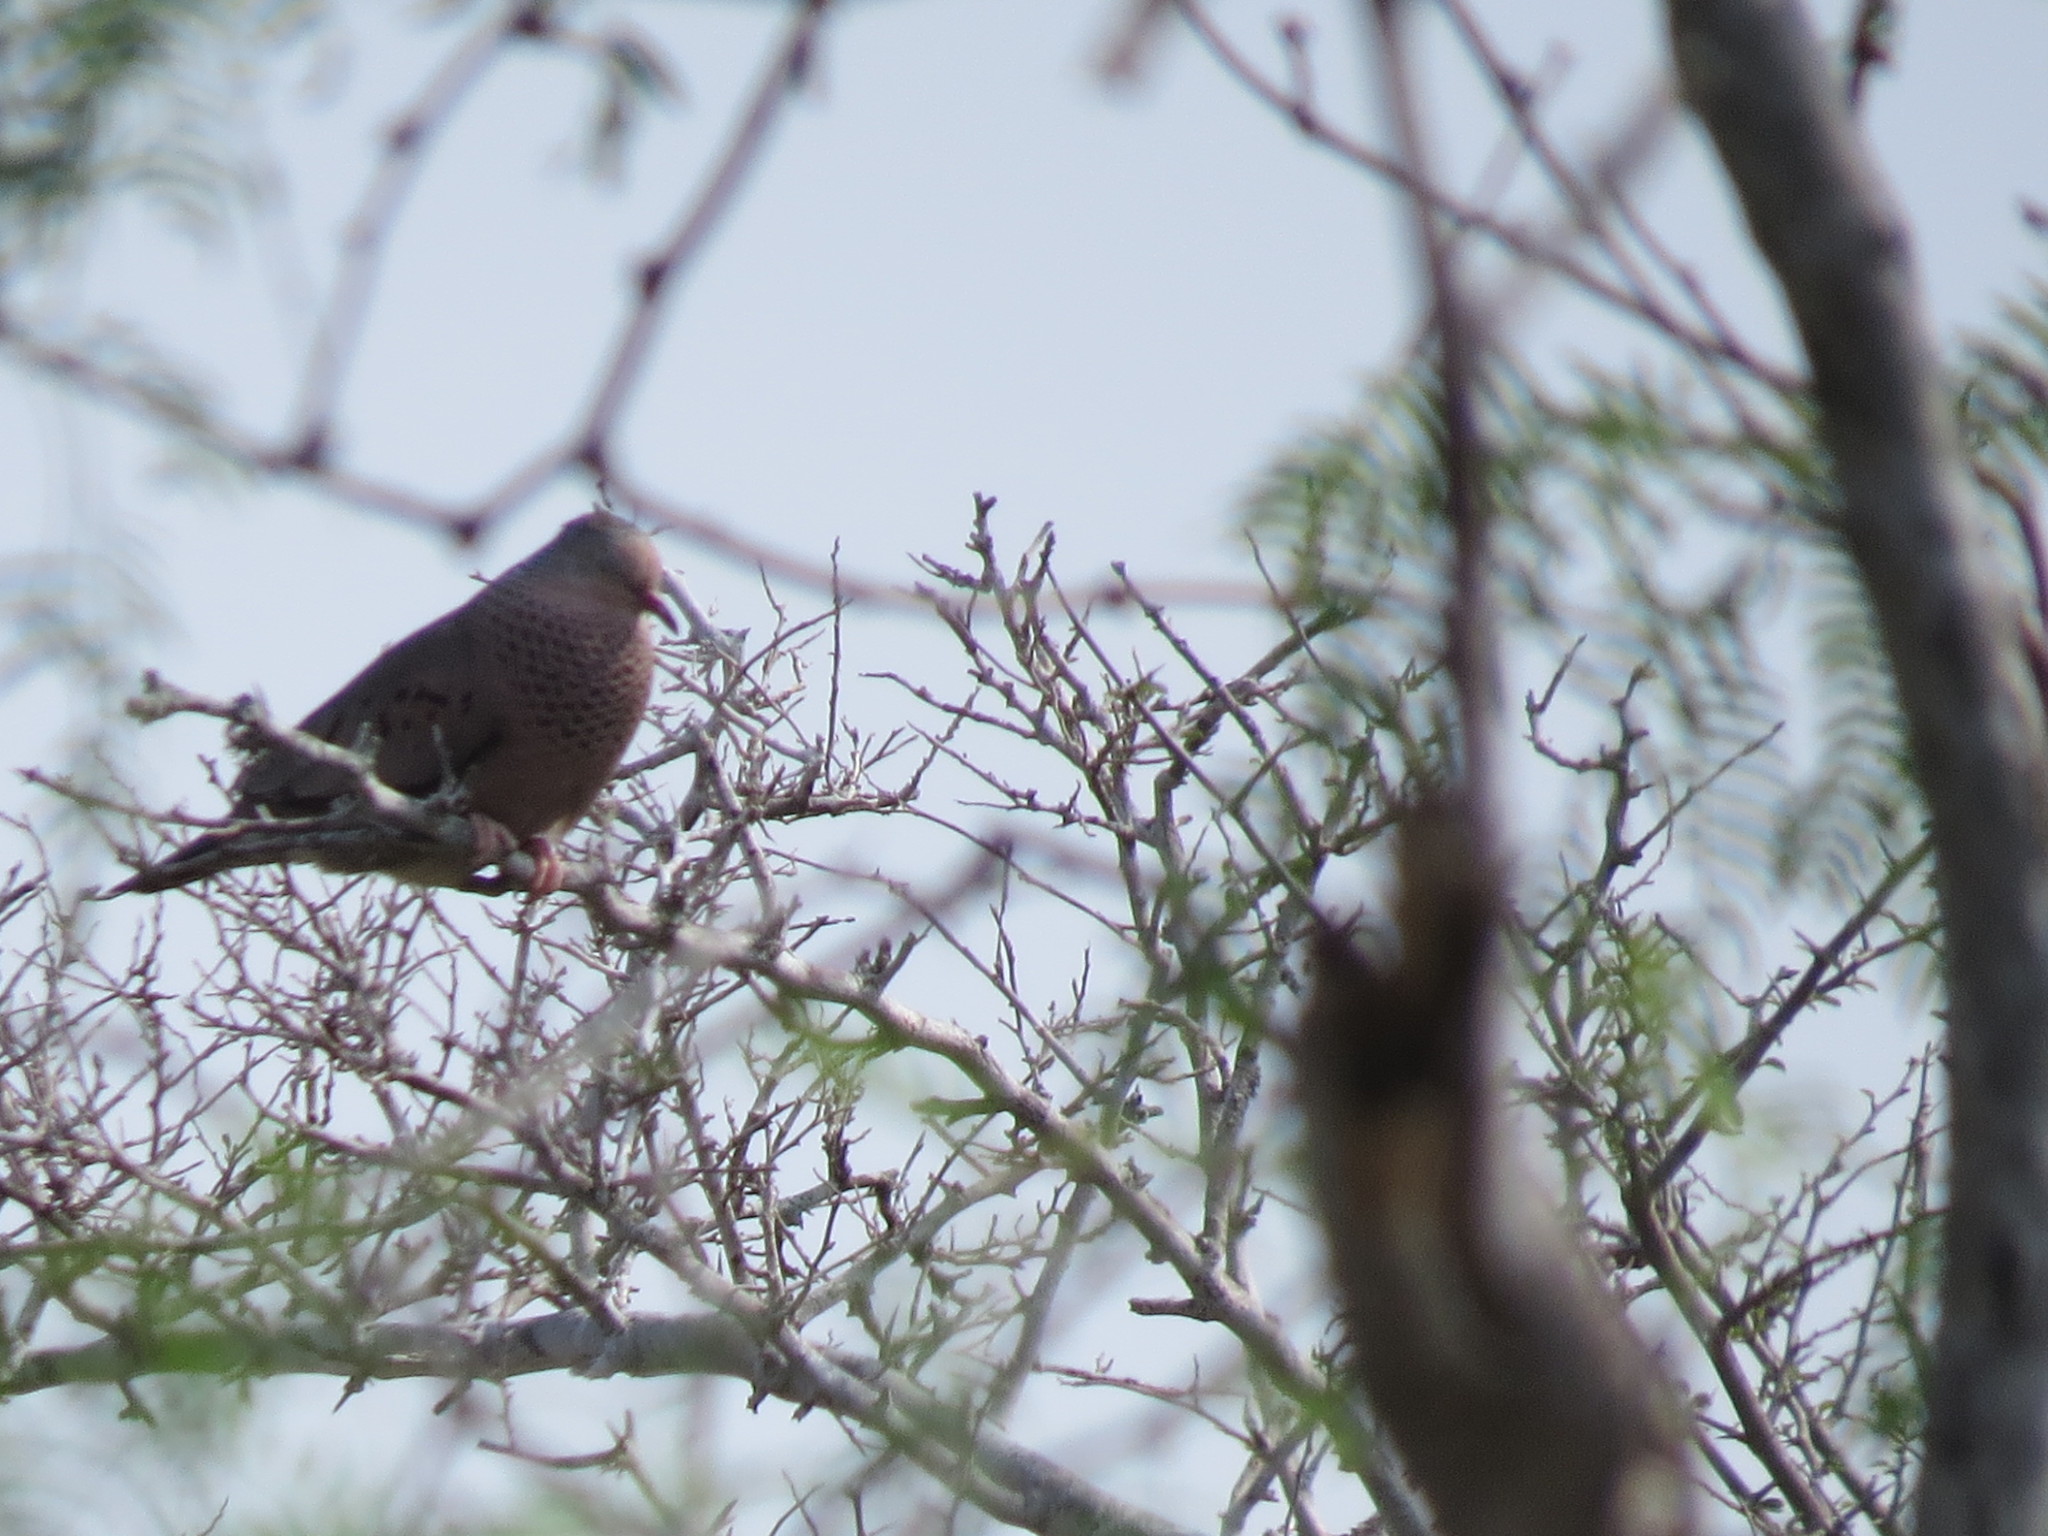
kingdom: Animalia
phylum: Chordata
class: Aves
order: Columbiformes
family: Columbidae
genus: Columbina
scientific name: Columbina passerina
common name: Common ground-dove
